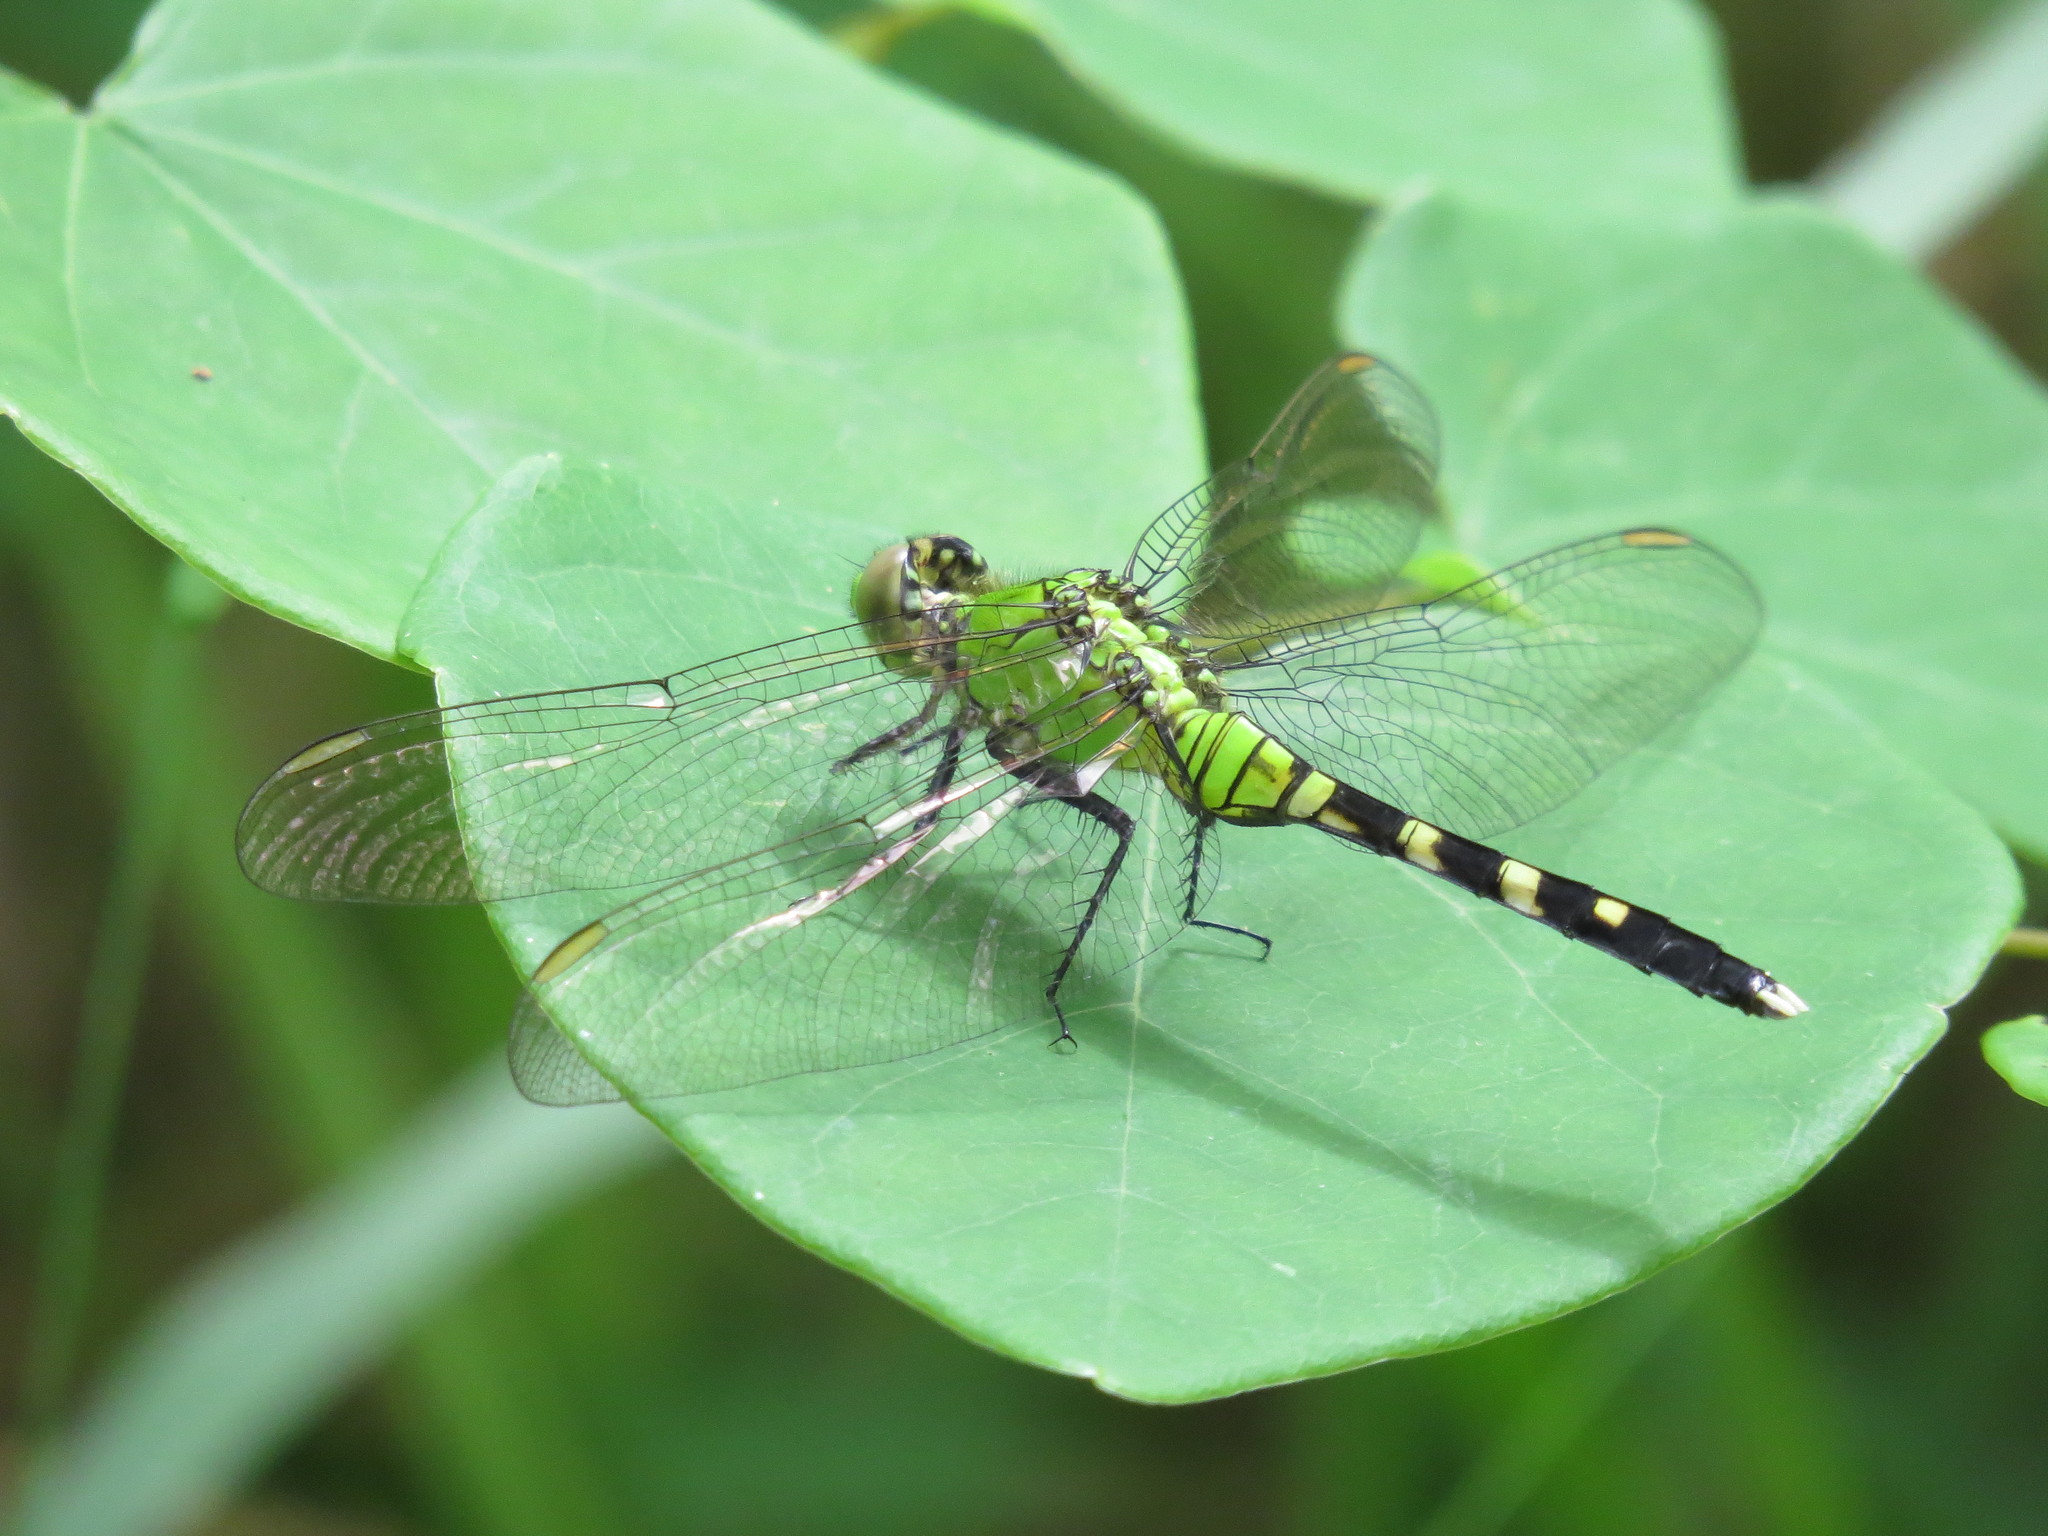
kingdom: Animalia
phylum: Arthropoda
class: Insecta
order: Odonata
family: Libellulidae
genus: Erythemis
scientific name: Erythemis simplicicollis
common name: Eastern pondhawk
